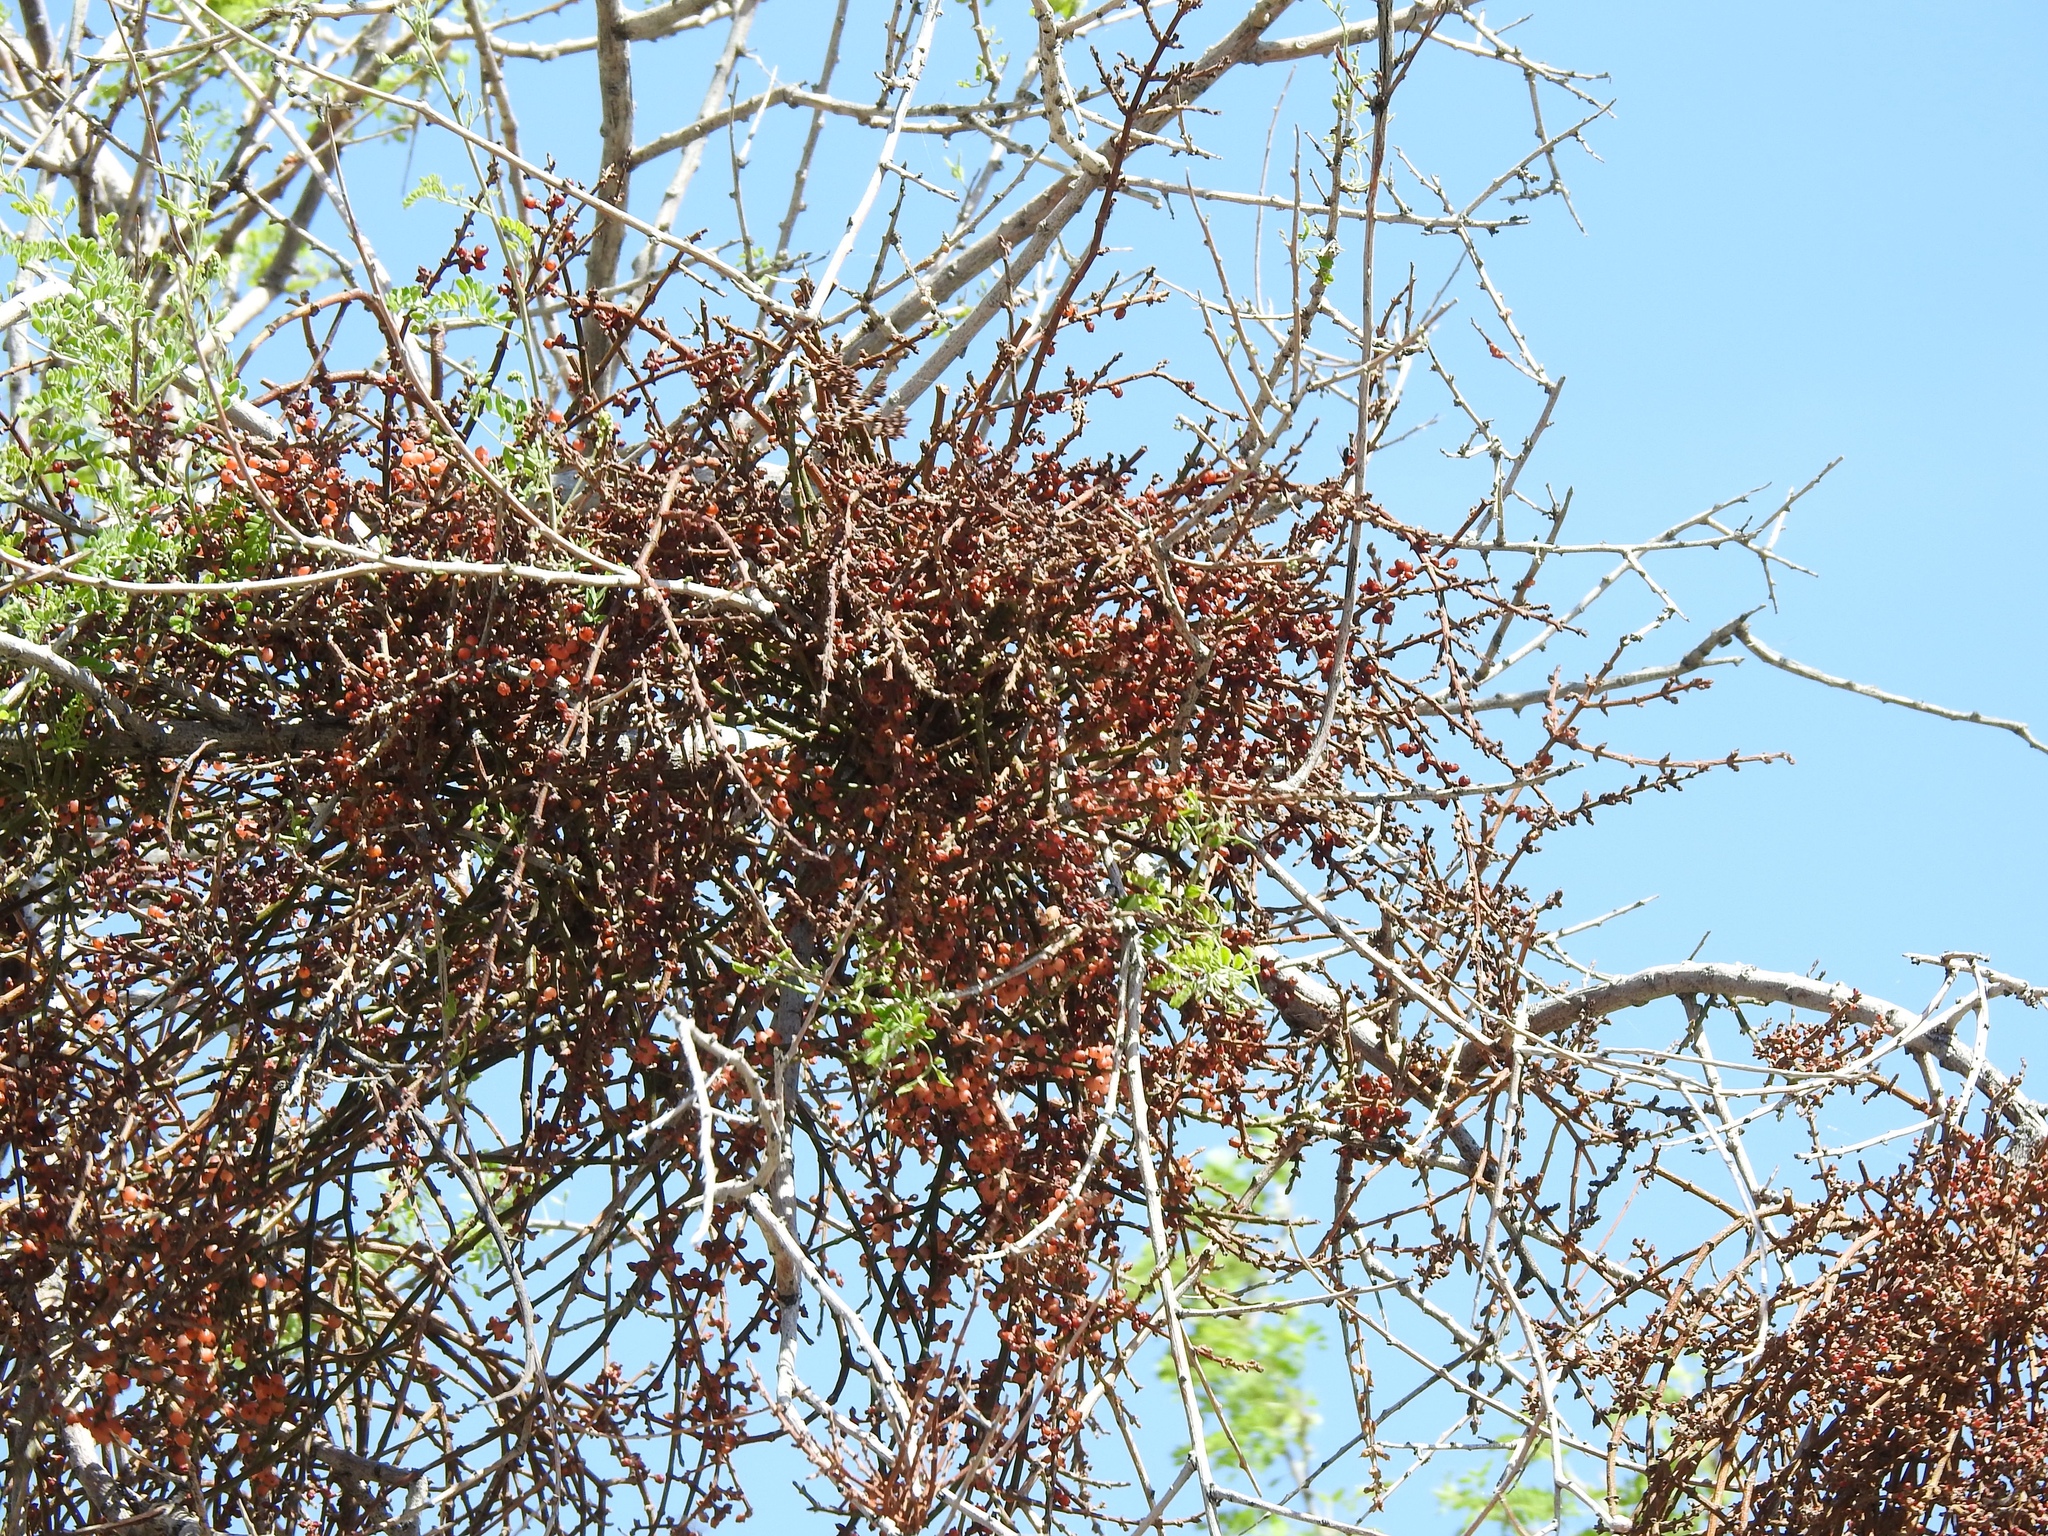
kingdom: Plantae
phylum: Tracheophyta
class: Magnoliopsida
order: Santalales
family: Viscaceae
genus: Phoradendron
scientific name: Phoradendron californicum
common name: Acacia mistletoe
